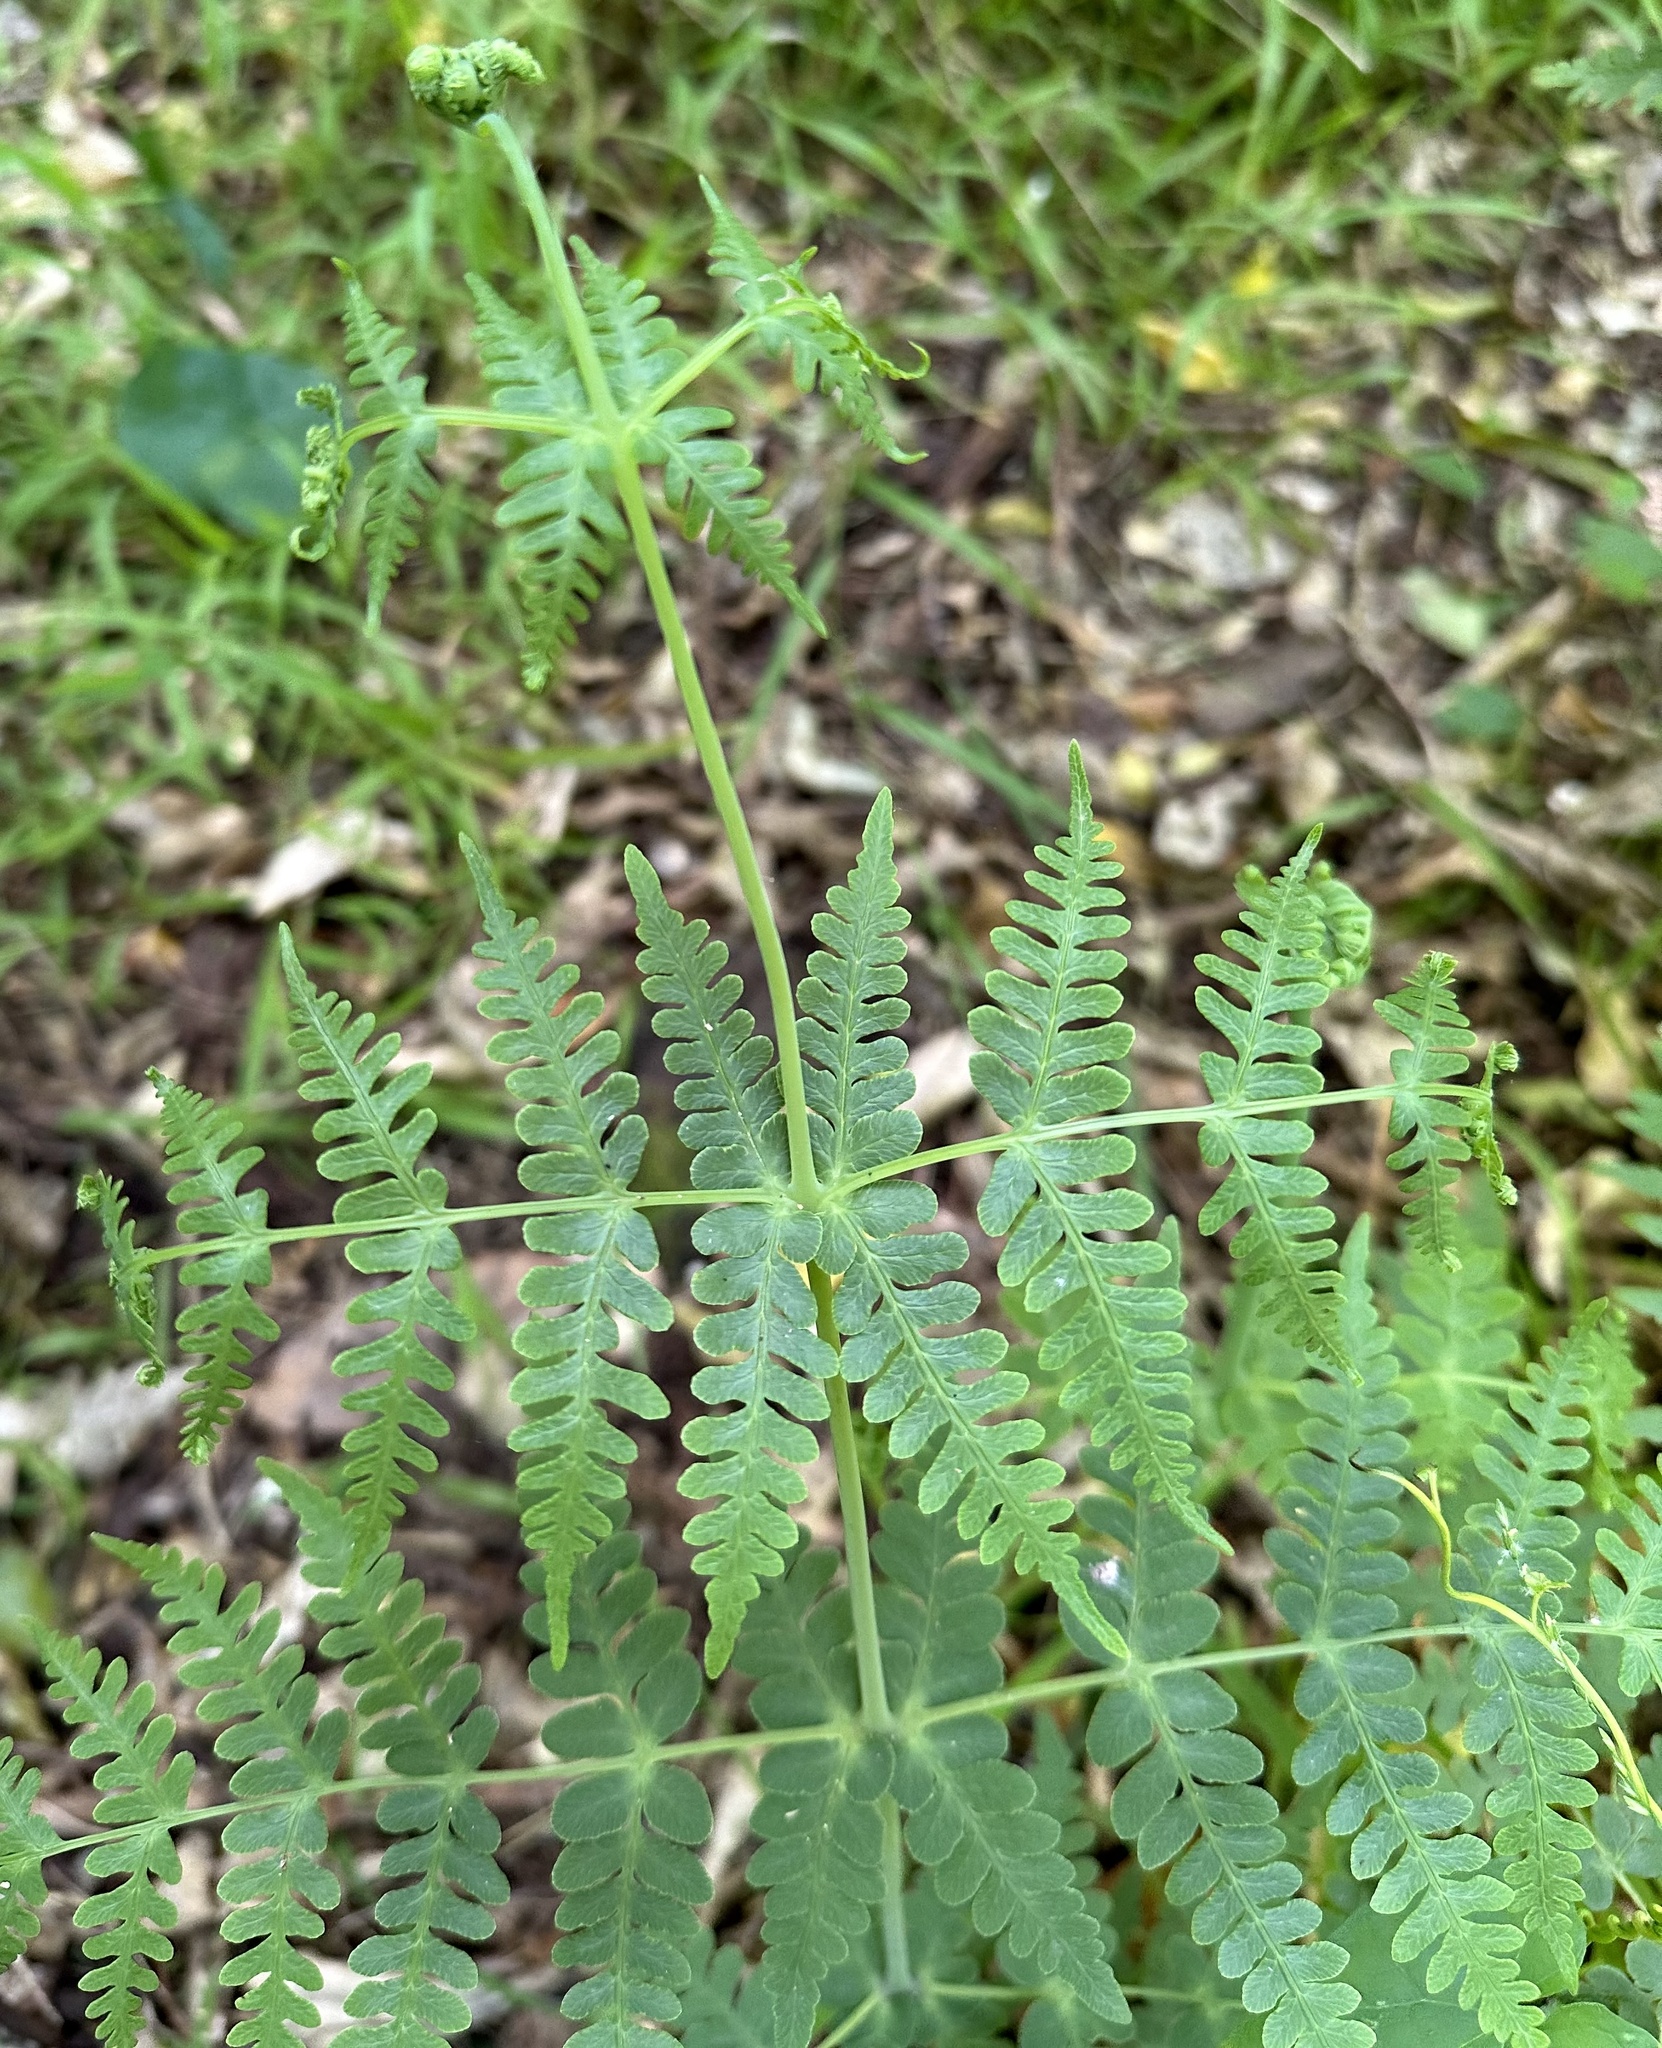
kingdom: Plantae
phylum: Tracheophyta
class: Polypodiopsida
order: Polypodiales
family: Dennstaedtiaceae
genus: Histiopteris
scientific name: Histiopteris incisa
